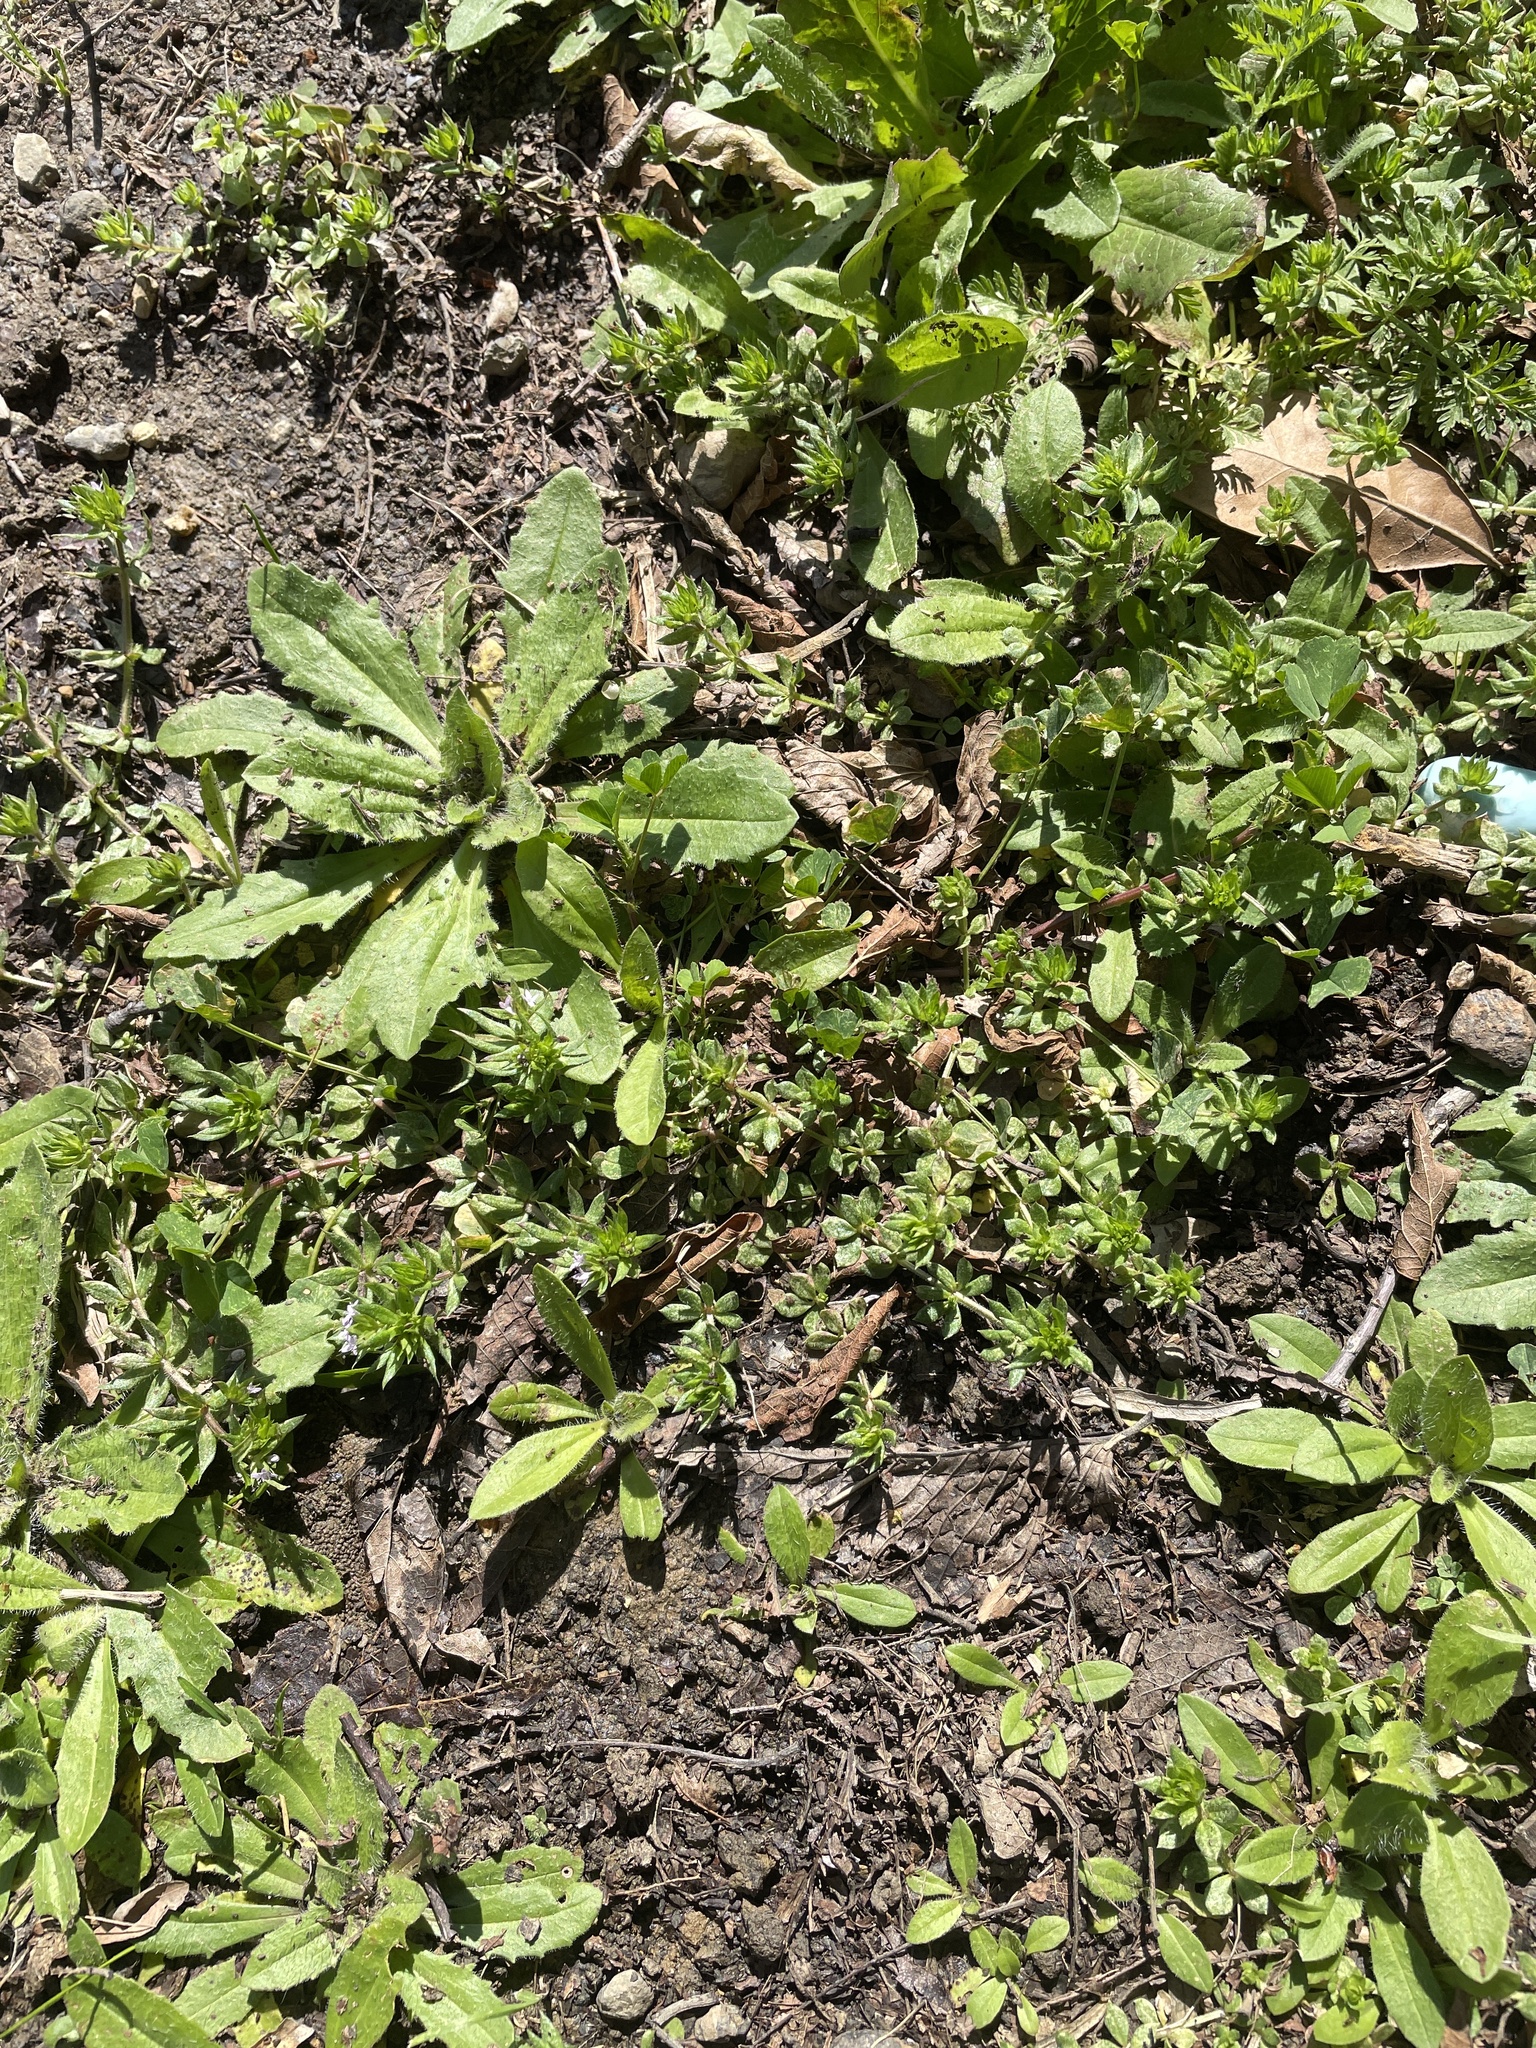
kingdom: Plantae
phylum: Tracheophyta
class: Magnoliopsida
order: Gentianales
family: Rubiaceae
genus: Sherardia
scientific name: Sherardia arvensis
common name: Field madder
